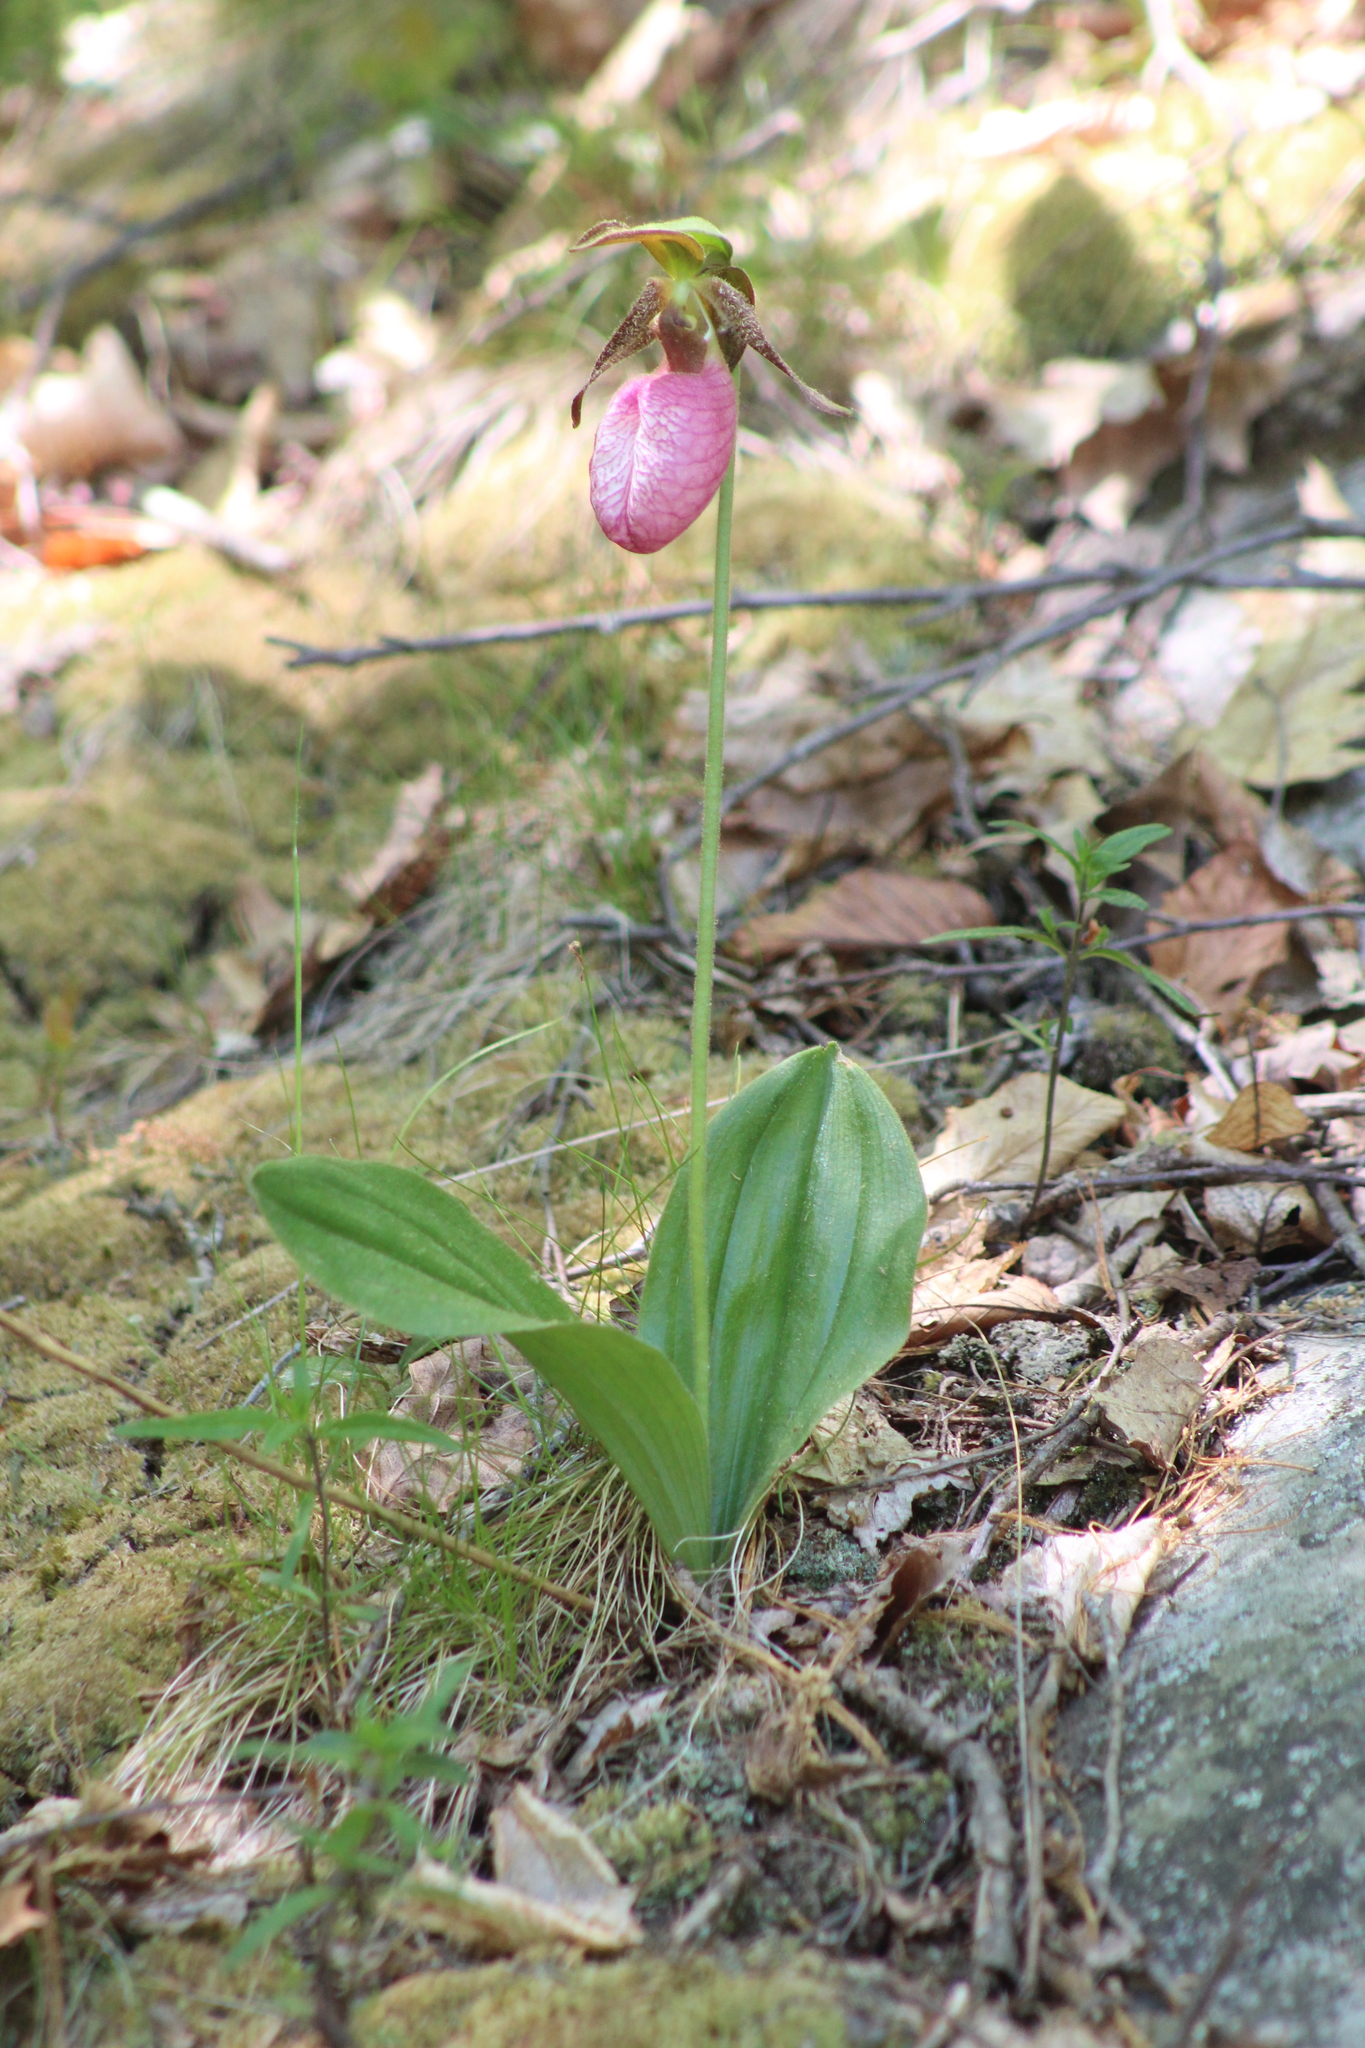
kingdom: Plantae
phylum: Tracheophyta
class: Liliopsida
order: Asparagales
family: Orchidaceae
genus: Cypripedium
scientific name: Cypripedium acaule
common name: Pink lady's-slipper
